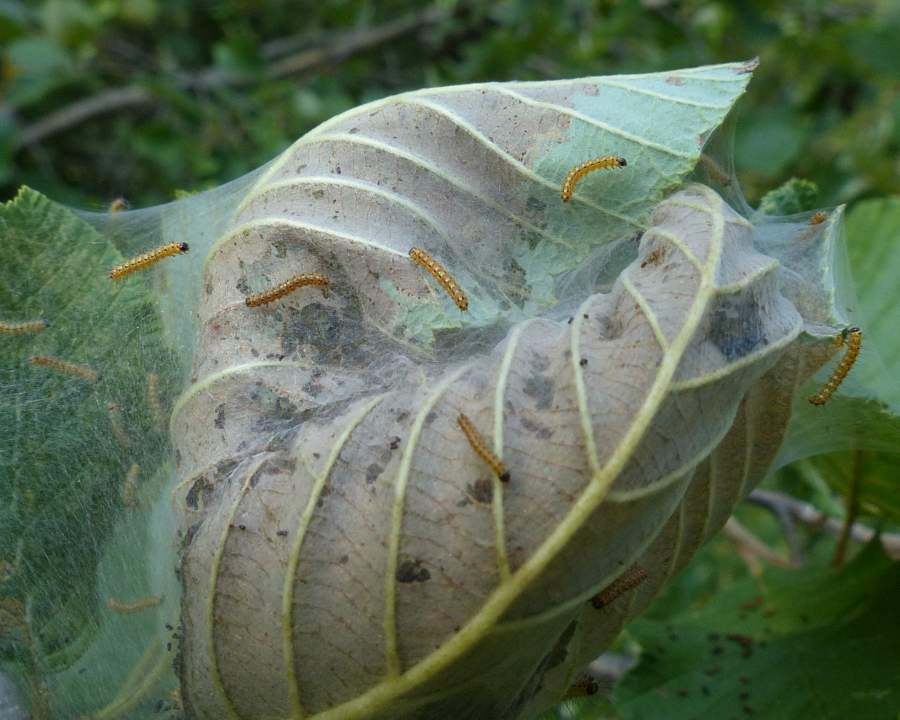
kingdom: Animalia
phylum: Arthropoda
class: Insecta
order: Lepidoptera
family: Erebidae
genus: Hyphantria
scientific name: Hyphantria cunea
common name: American white moth
